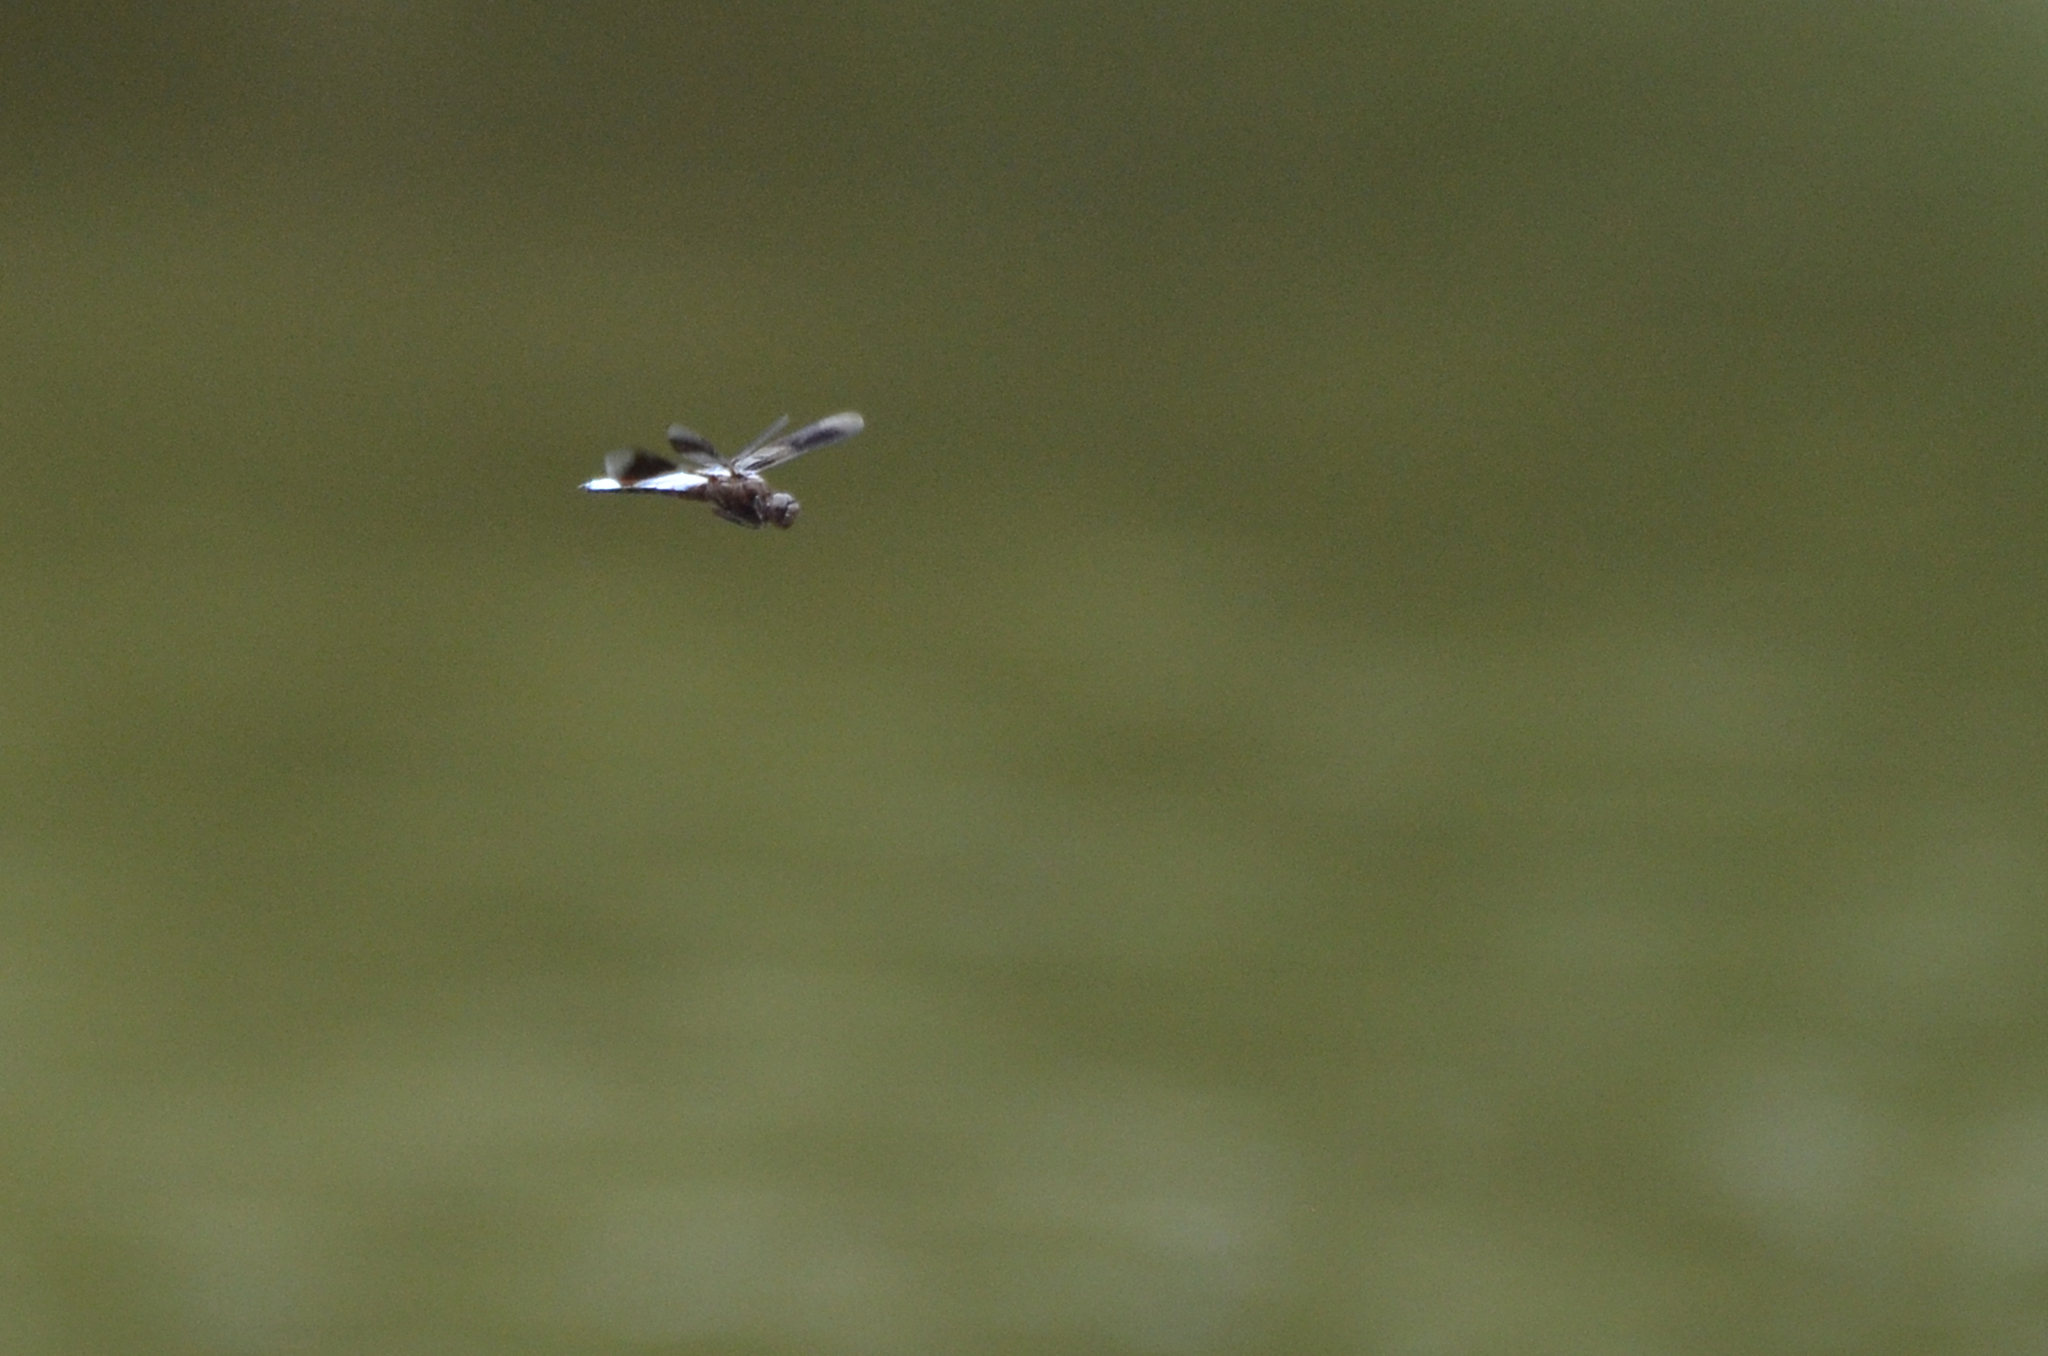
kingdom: Animalia
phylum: Arthropoda
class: Insecta
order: Odonata
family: Libellulidae
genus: Plathemis
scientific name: Plathemis lydia
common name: Common whitetail
